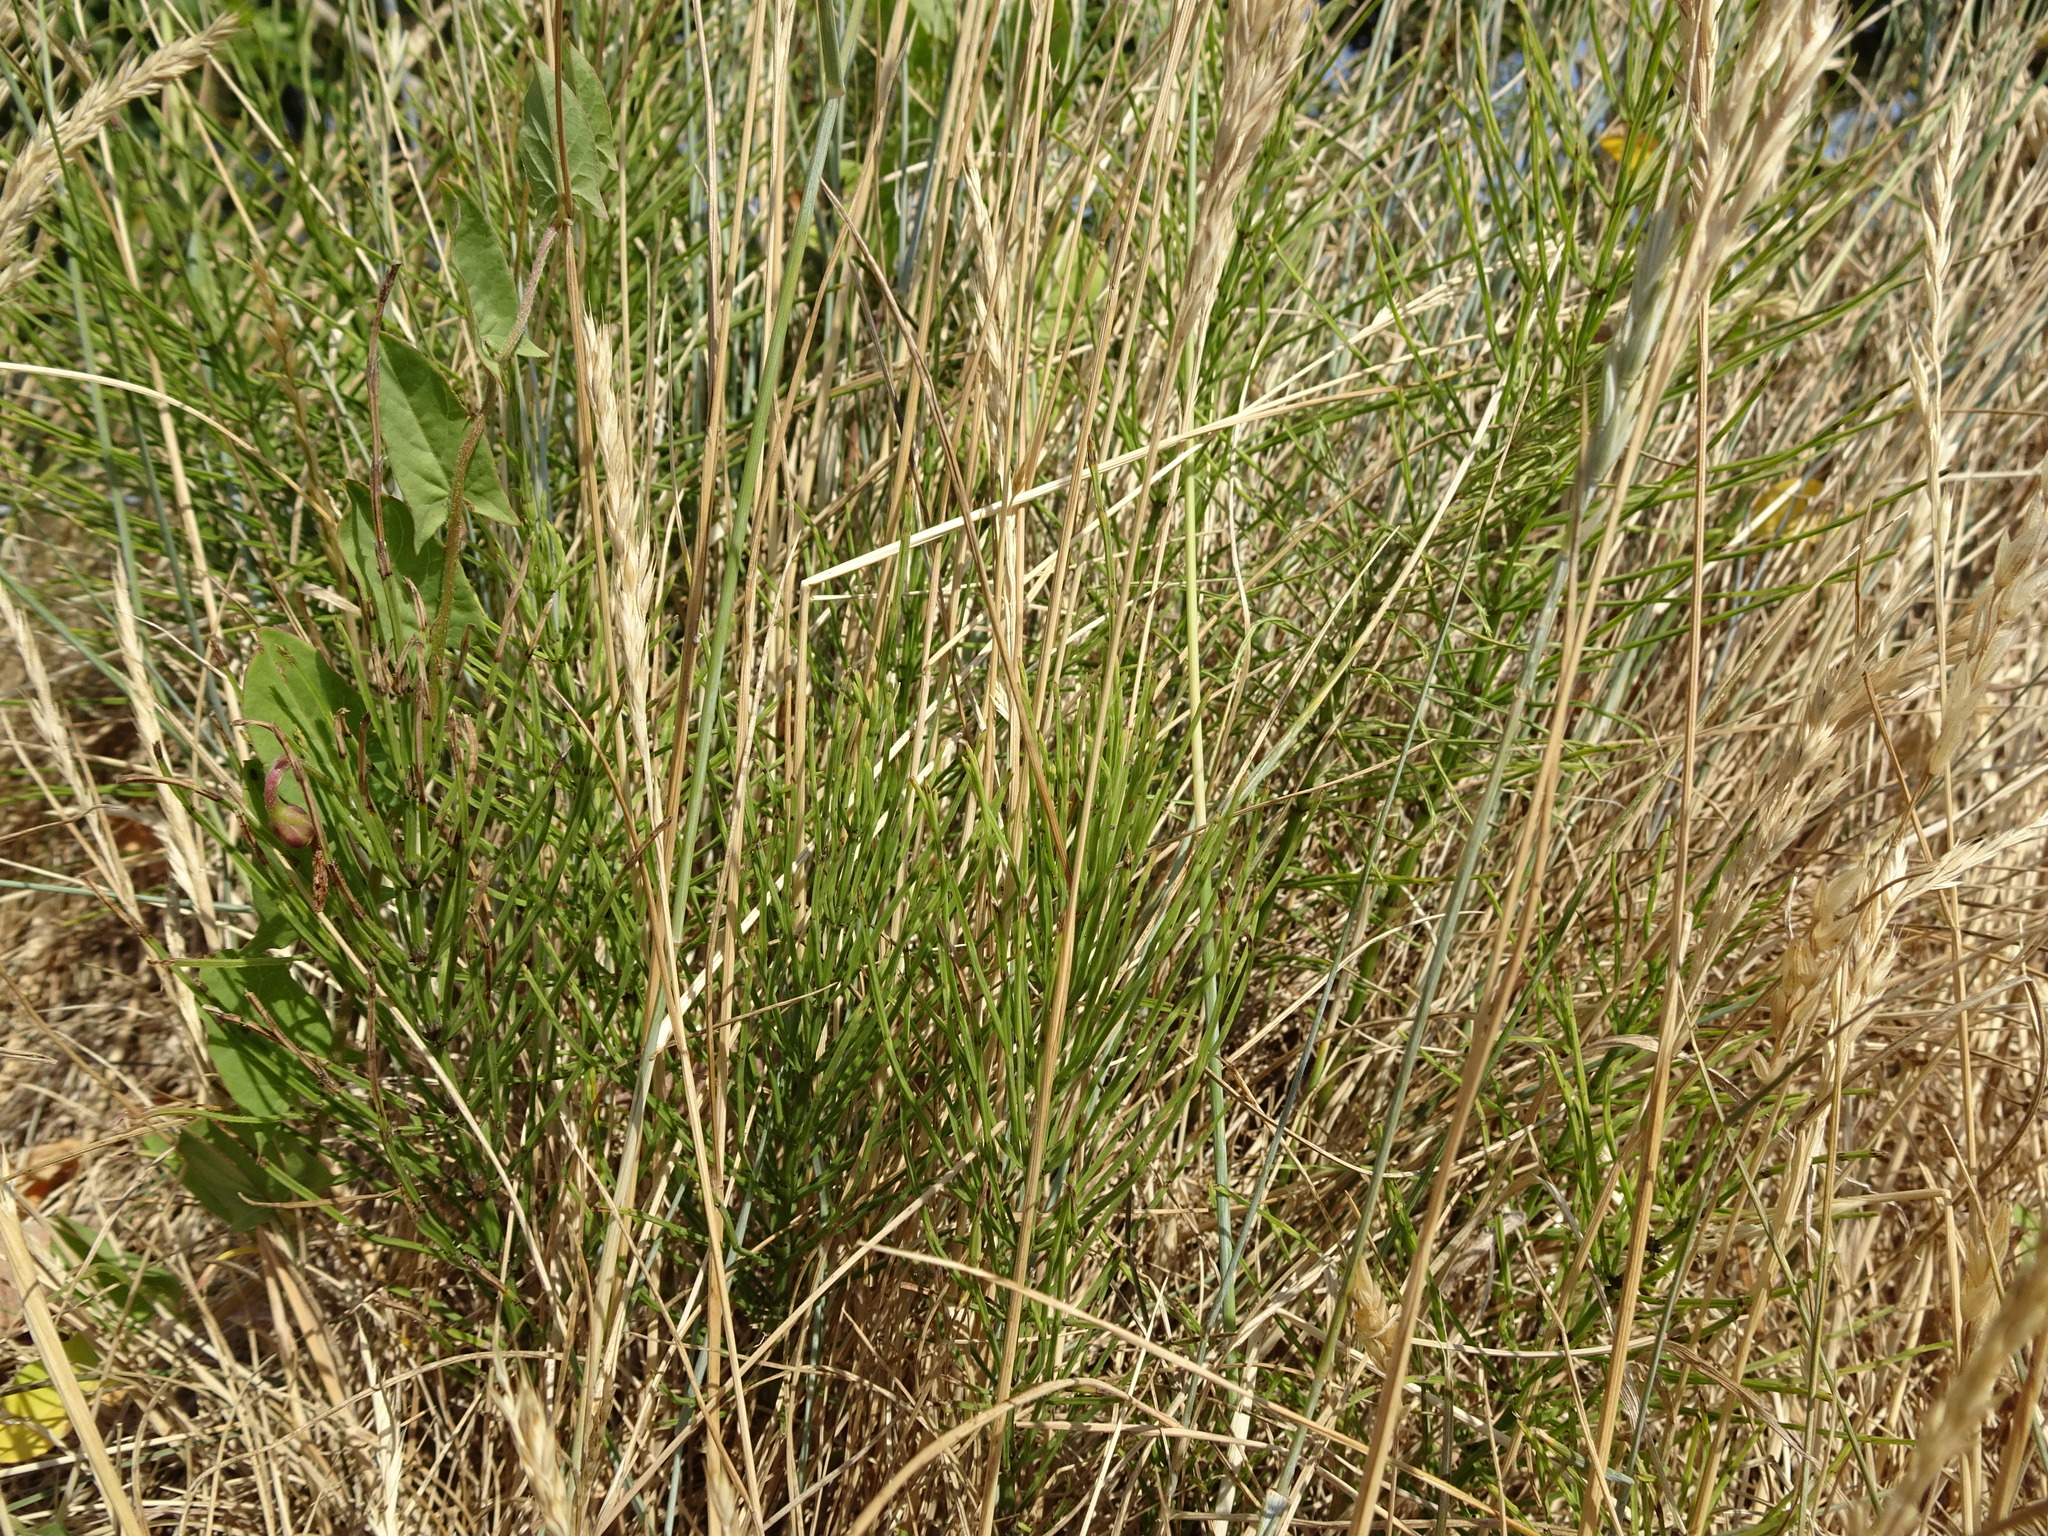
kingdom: Plantae
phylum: Tracheophyta
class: Polypodiopsida
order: Equisetales
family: Equisetaceae
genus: Equisetum
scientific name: Equisetum arvense
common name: Field horsetail
